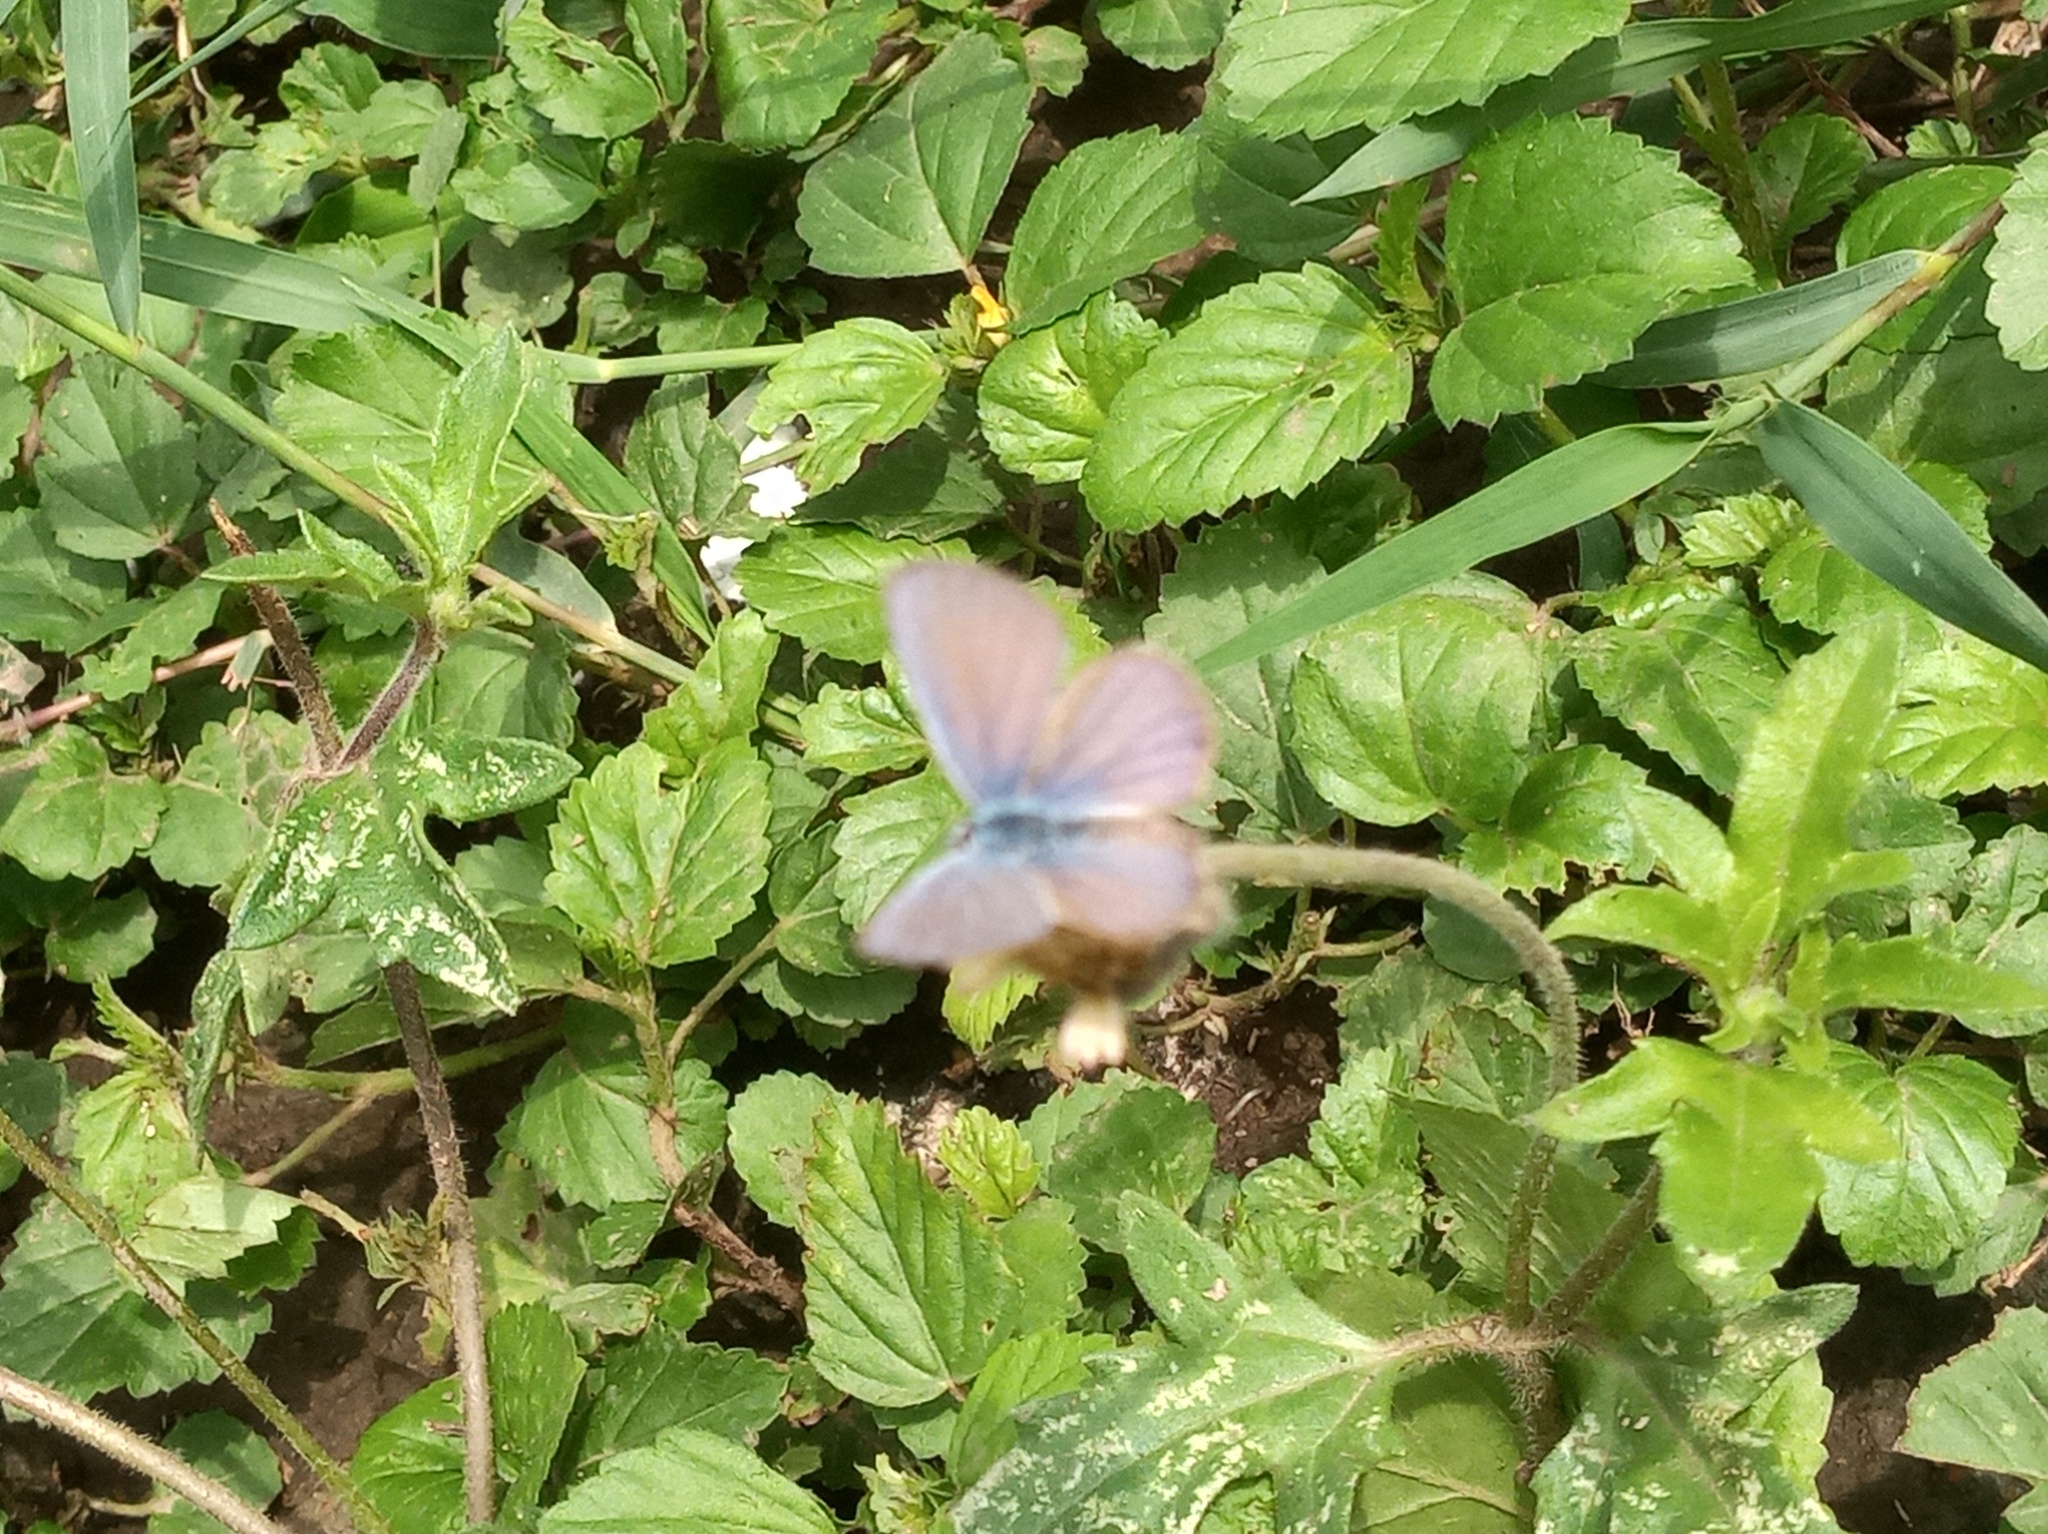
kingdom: Animalia
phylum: Arthropoda
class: Insecta
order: Lepidoptera
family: Lycaenidae
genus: Hemiargus
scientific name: Hemiargus ceraunus
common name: Ceraunus blue
